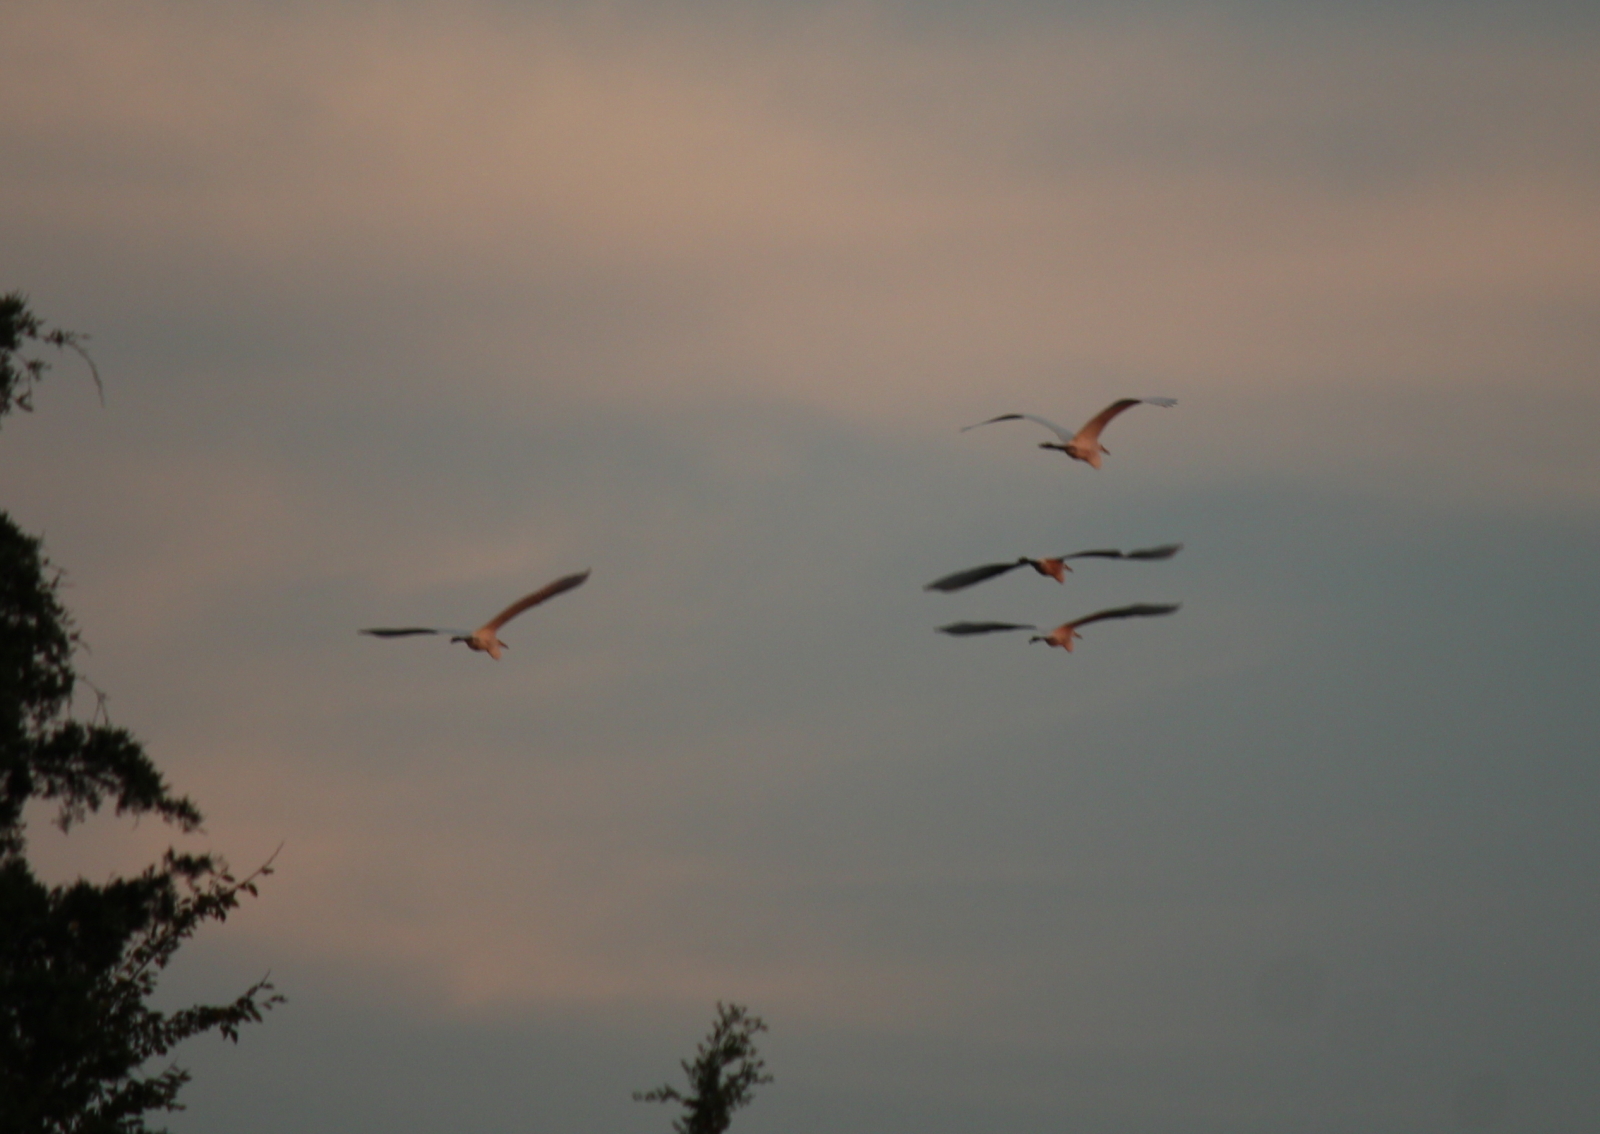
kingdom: Animalia
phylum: Chordata
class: Aves
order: Pelecaniformes
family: Ardeidae
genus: Ardea
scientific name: Ardea alba
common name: Great egret
